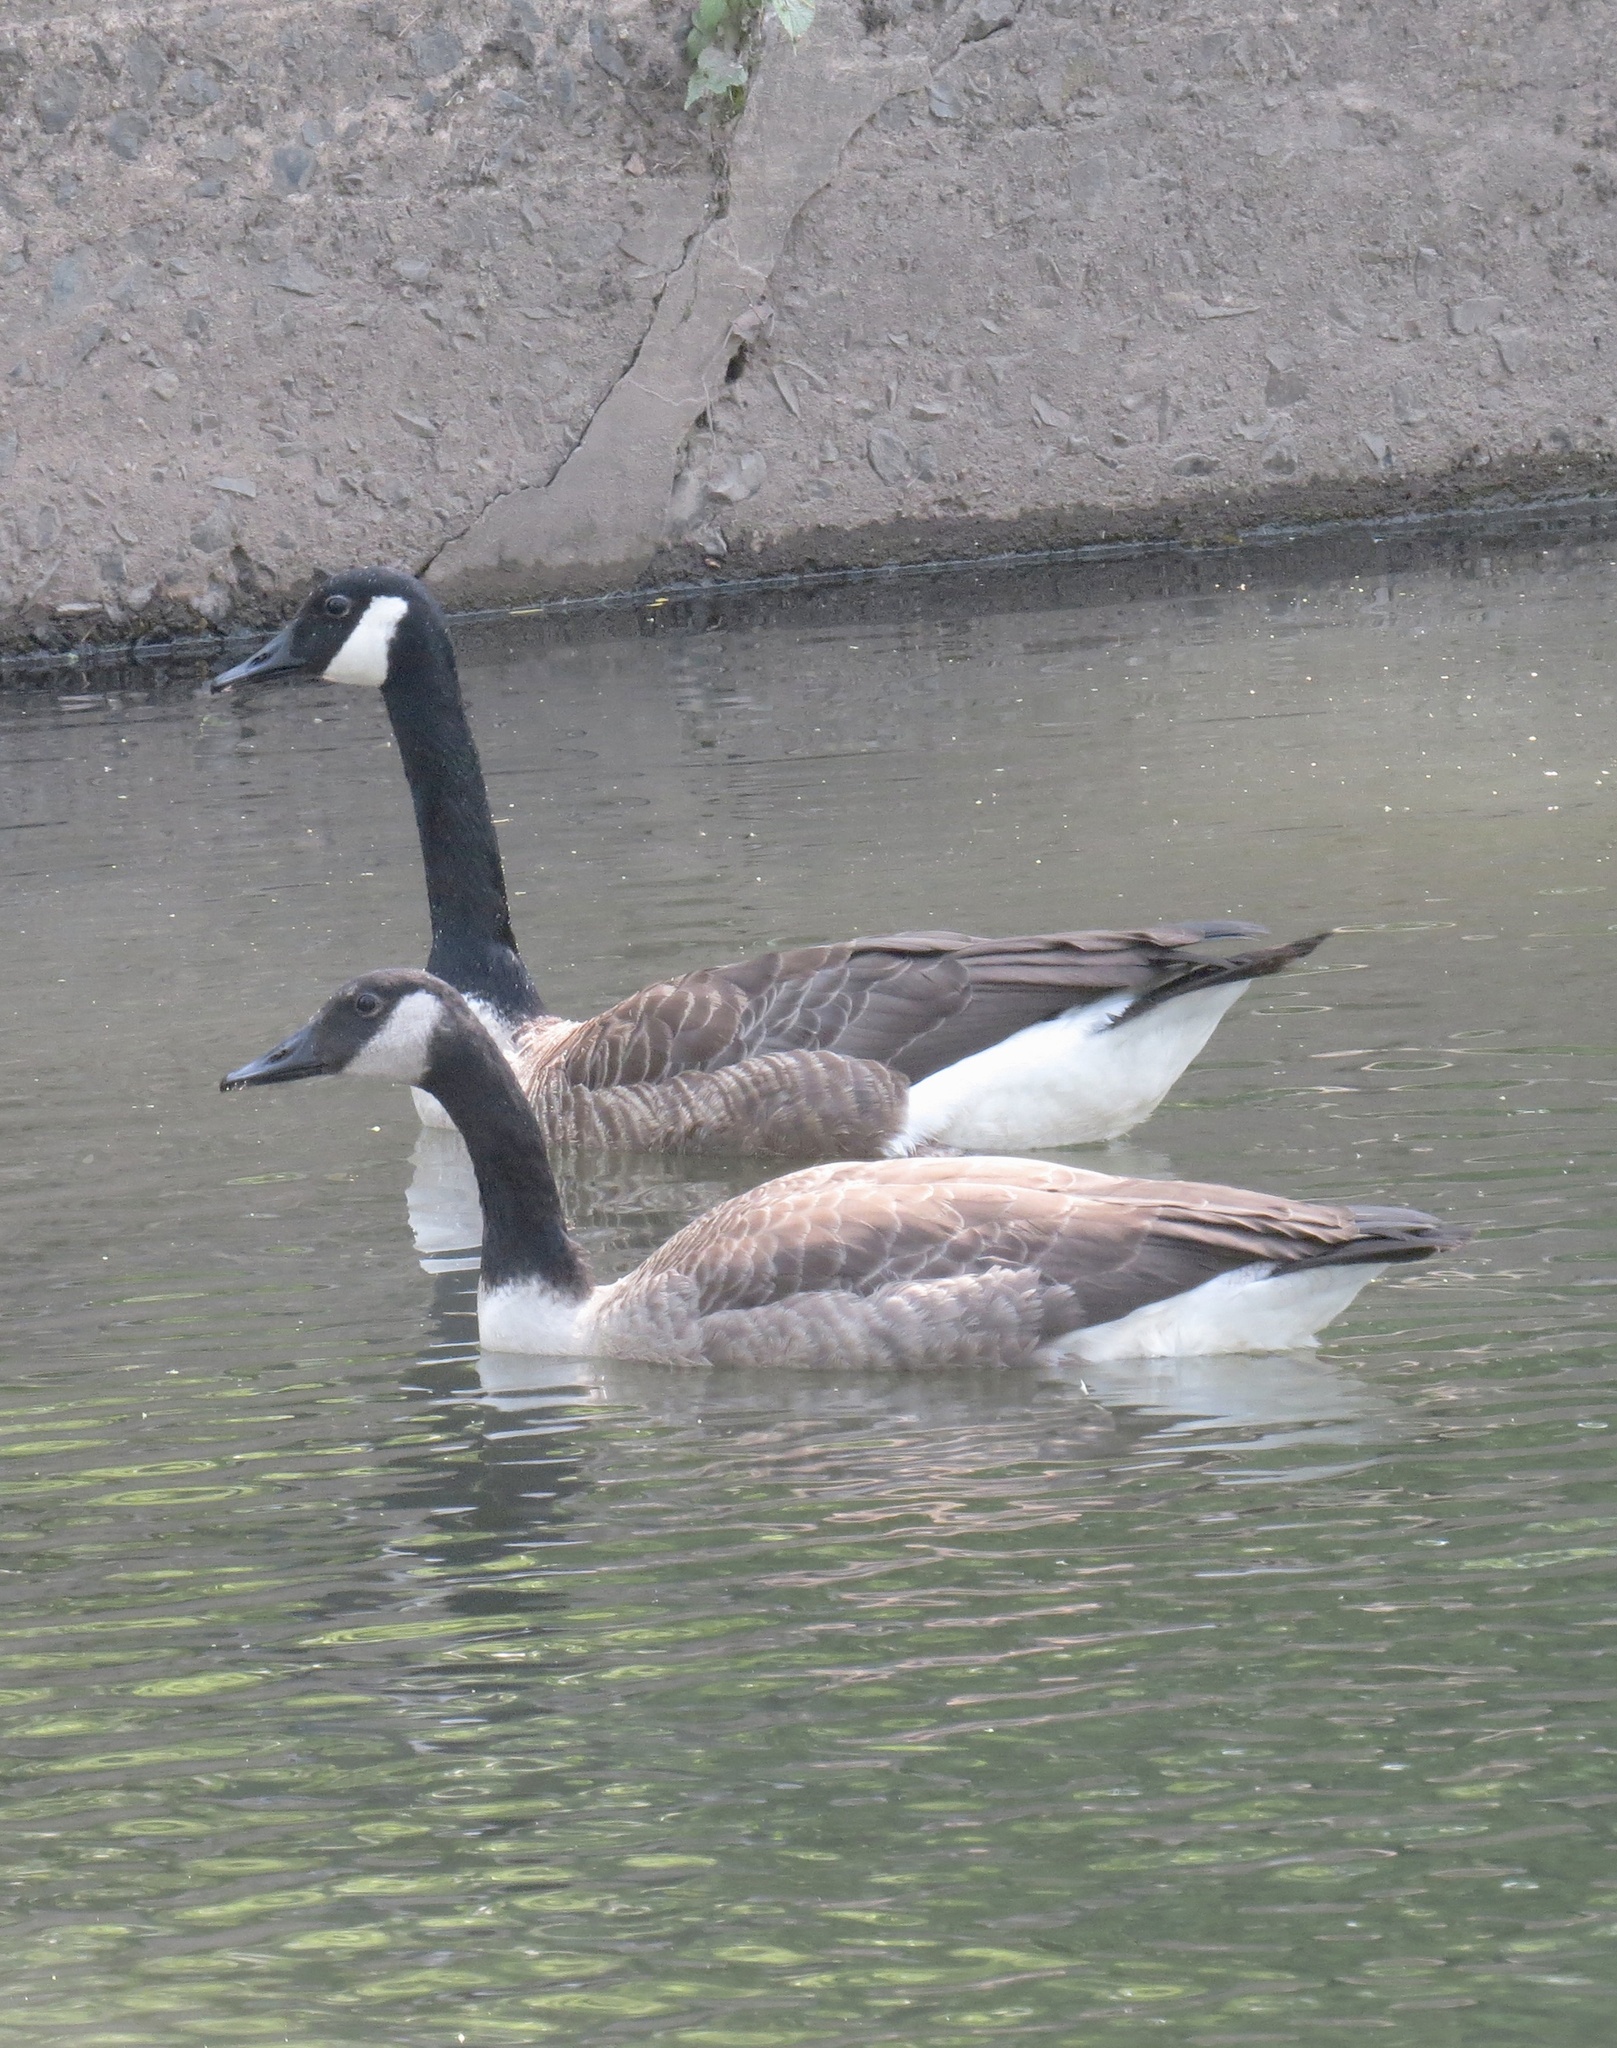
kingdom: Animalia
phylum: Chordata
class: Aves
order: Anseriformes
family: Anatidae
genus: Branta
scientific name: Branta canadensis
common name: Canada goose
